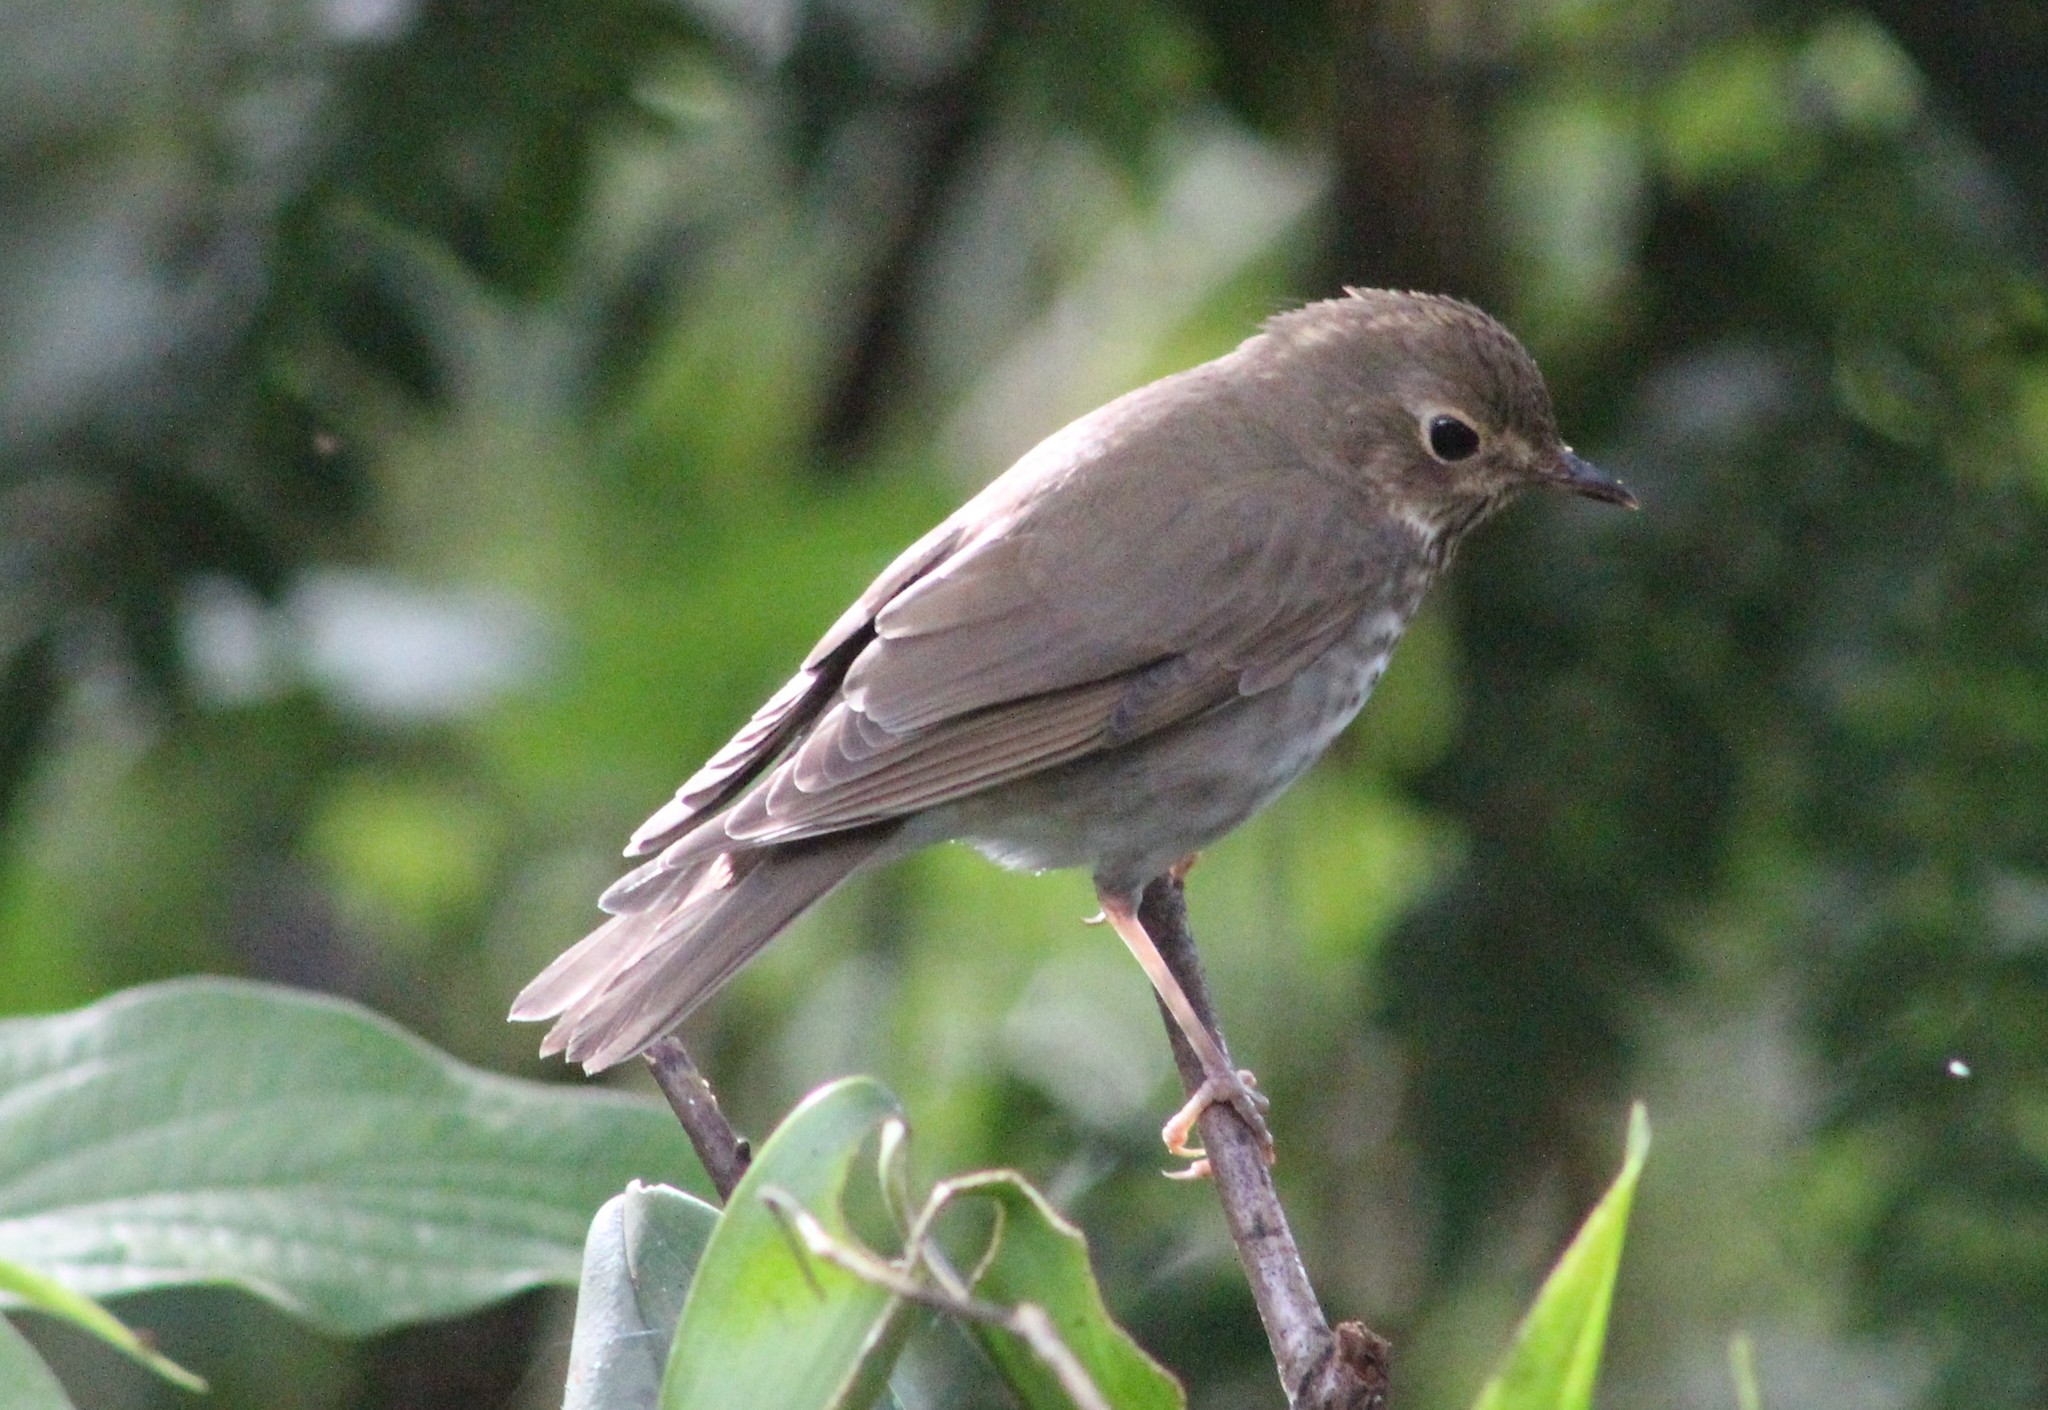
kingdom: Animalia
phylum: Chordata
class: Aves
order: Passeriformes
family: Turdidae
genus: Catharus
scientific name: Catharus ustulatus
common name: Swainson's thrush
